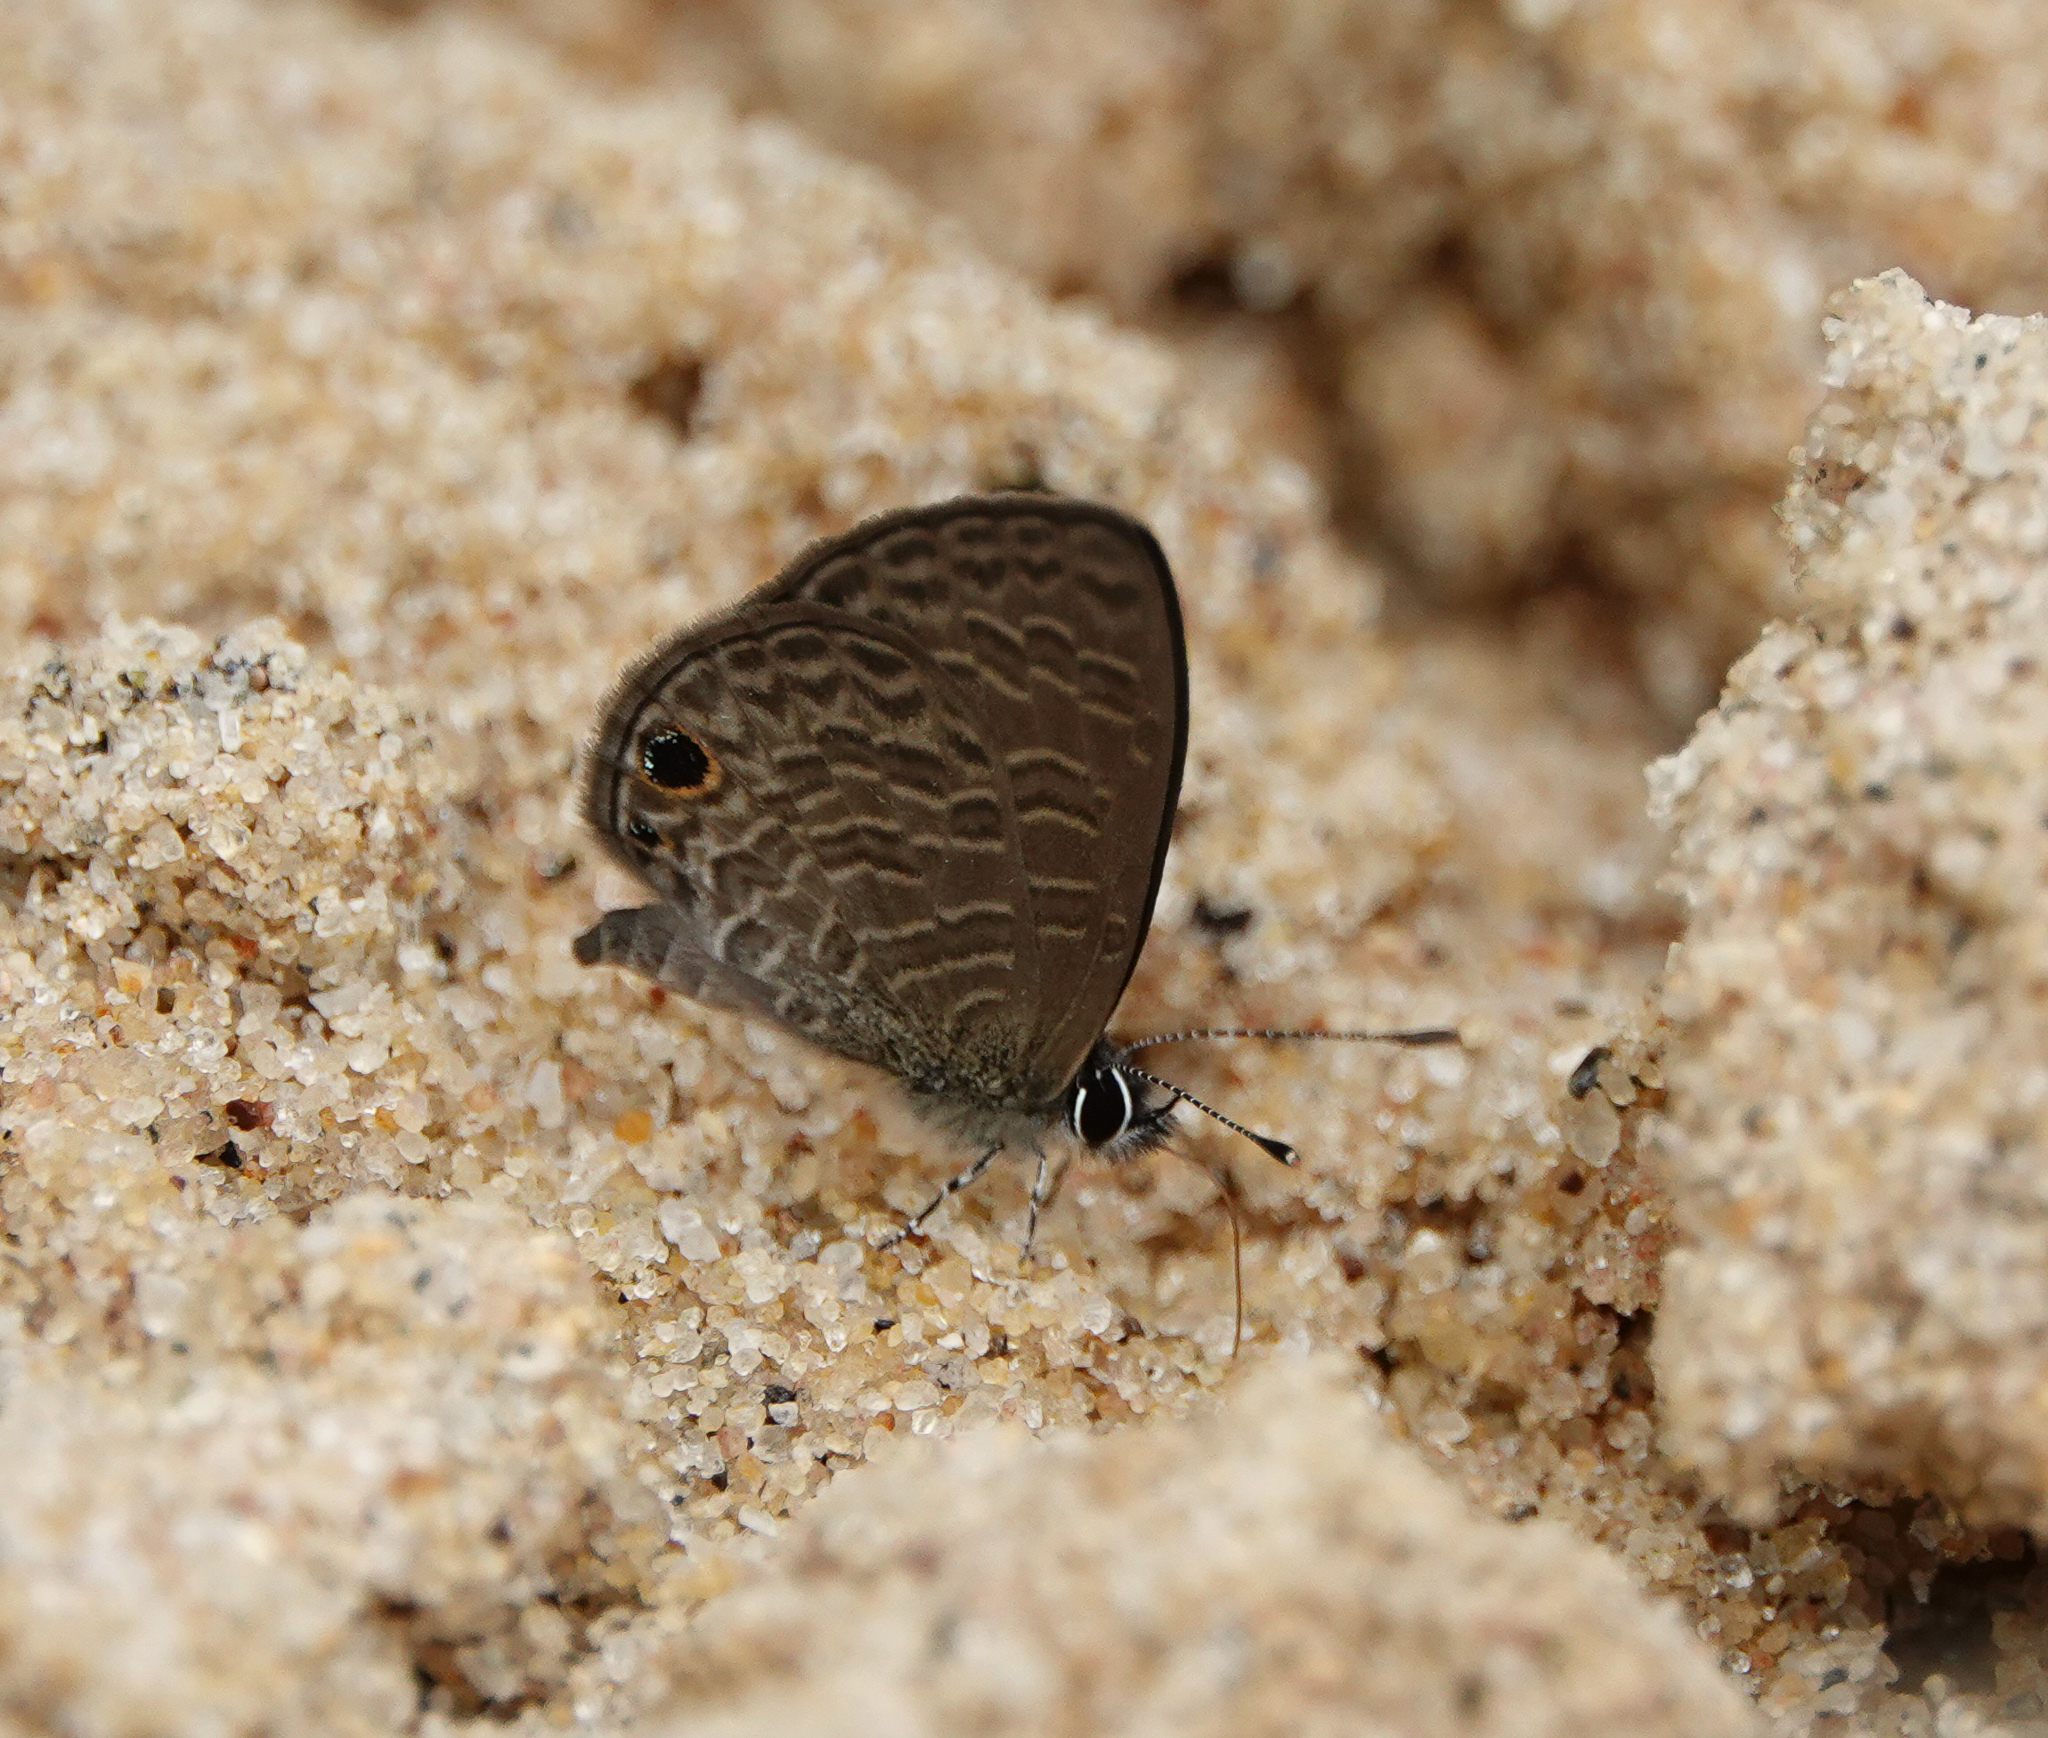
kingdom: Animalia
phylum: Arthropoda
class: Insecta
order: Lepidoptera
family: Lycaenidae
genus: Prosotas
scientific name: Prosotas dubiosa
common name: Tailless lineblue
